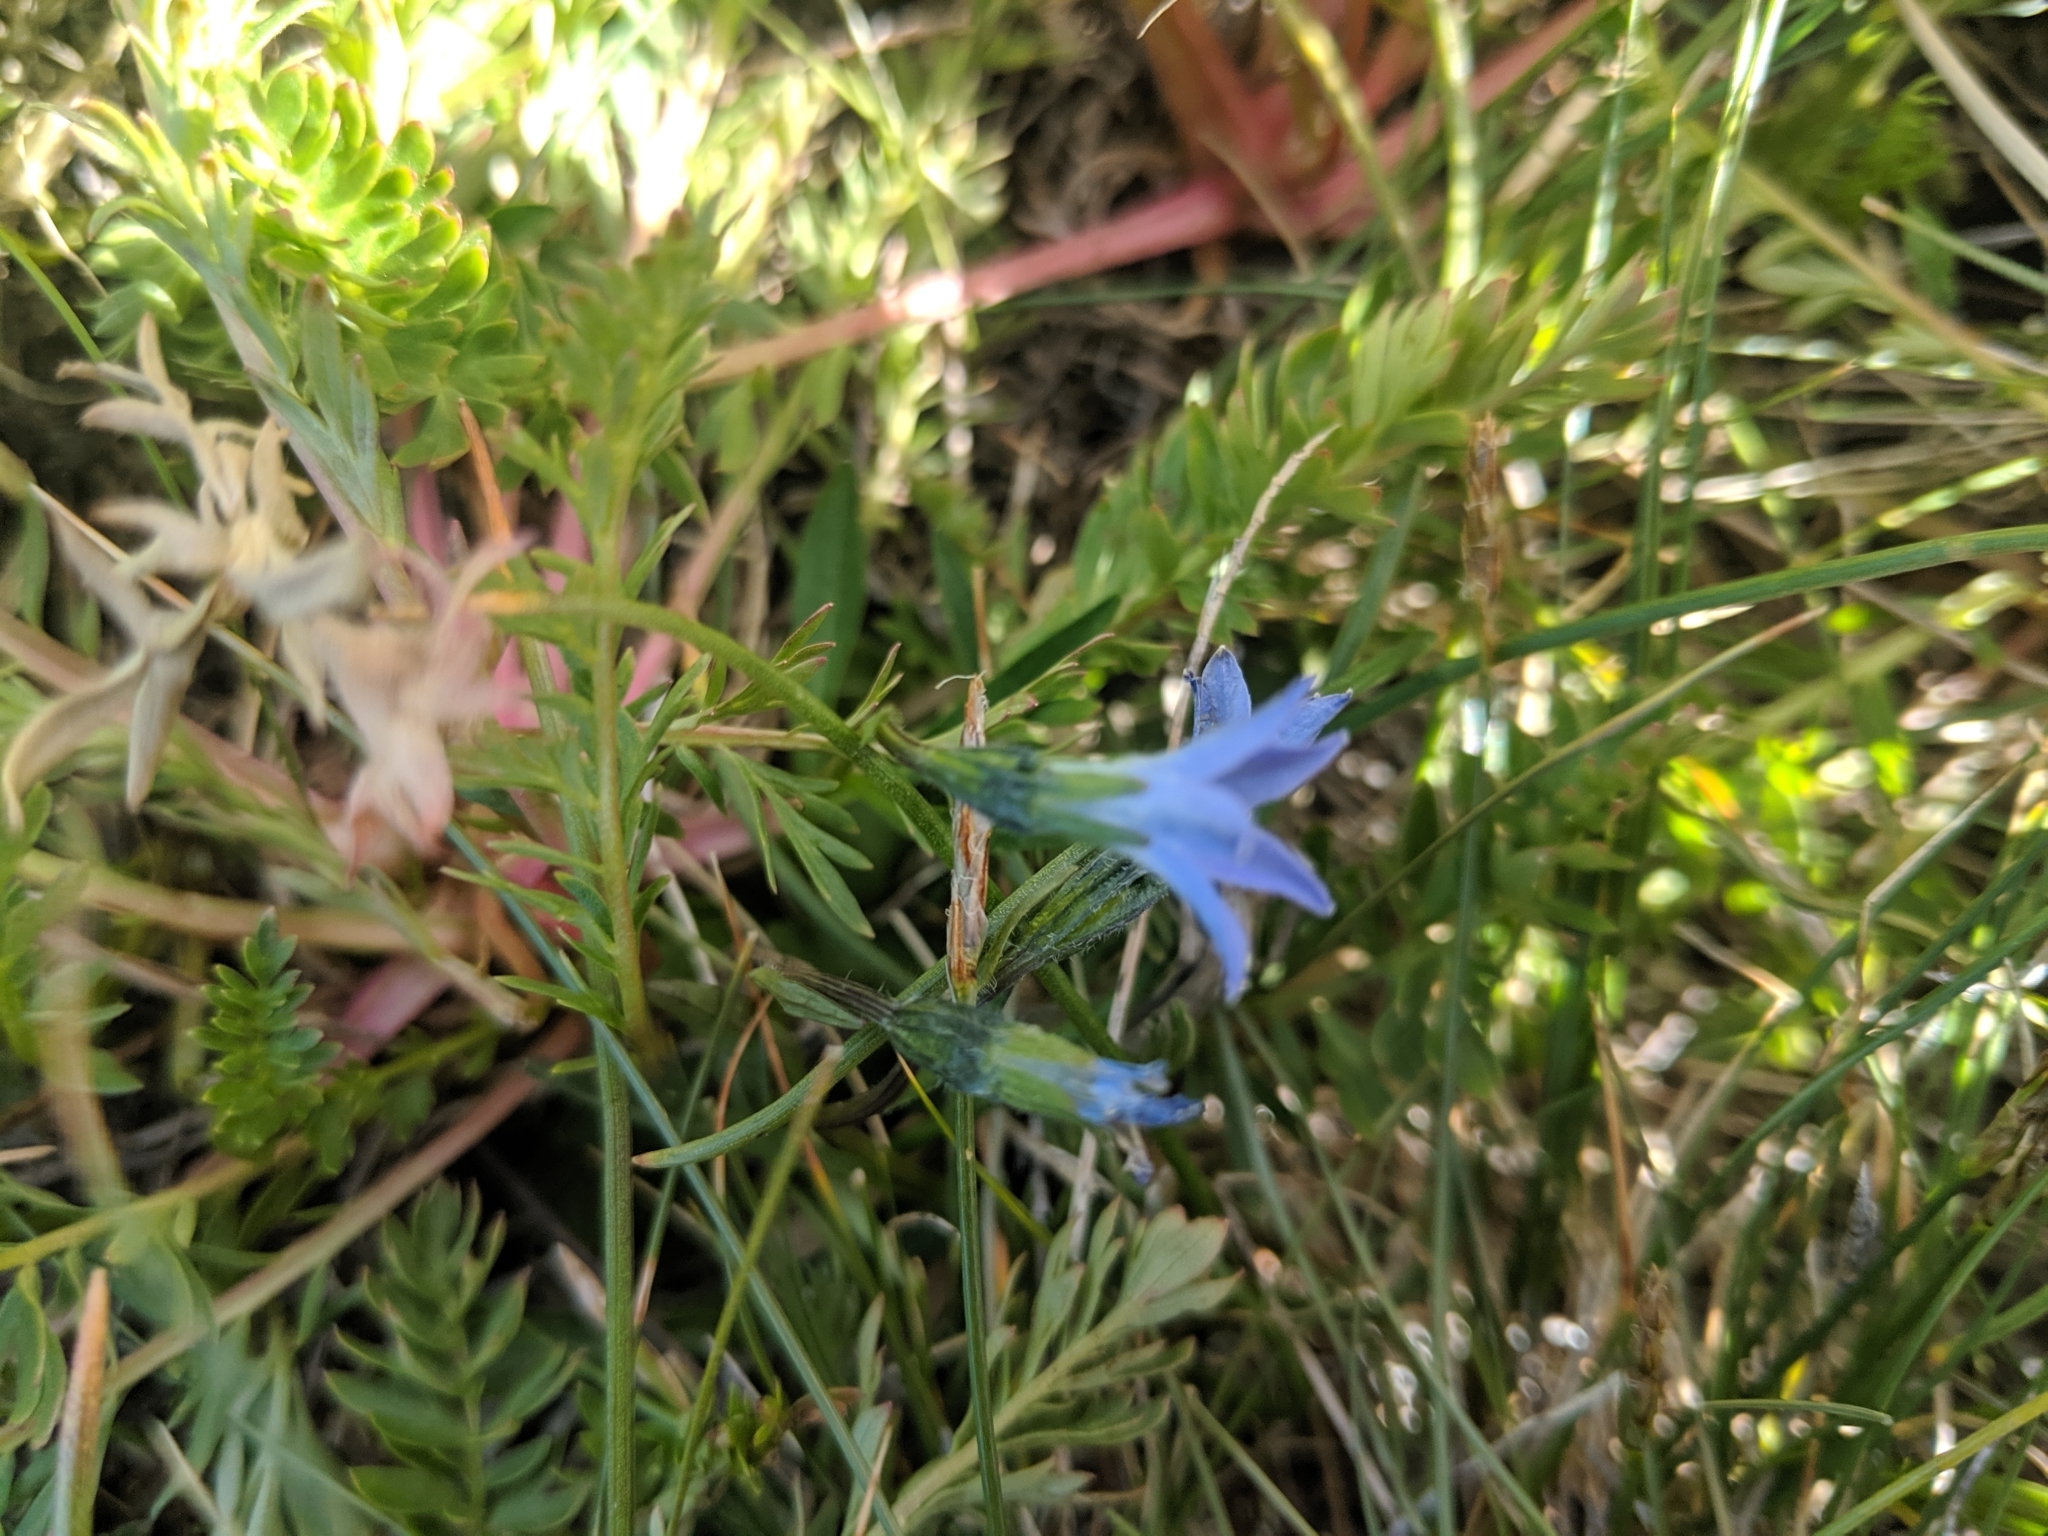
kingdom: Plantae
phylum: Tracheophyta
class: Magnoliopsida
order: Gentianales
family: Gentianaceae
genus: Gentiana
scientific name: Gentiana prostrata
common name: Moss gentian
